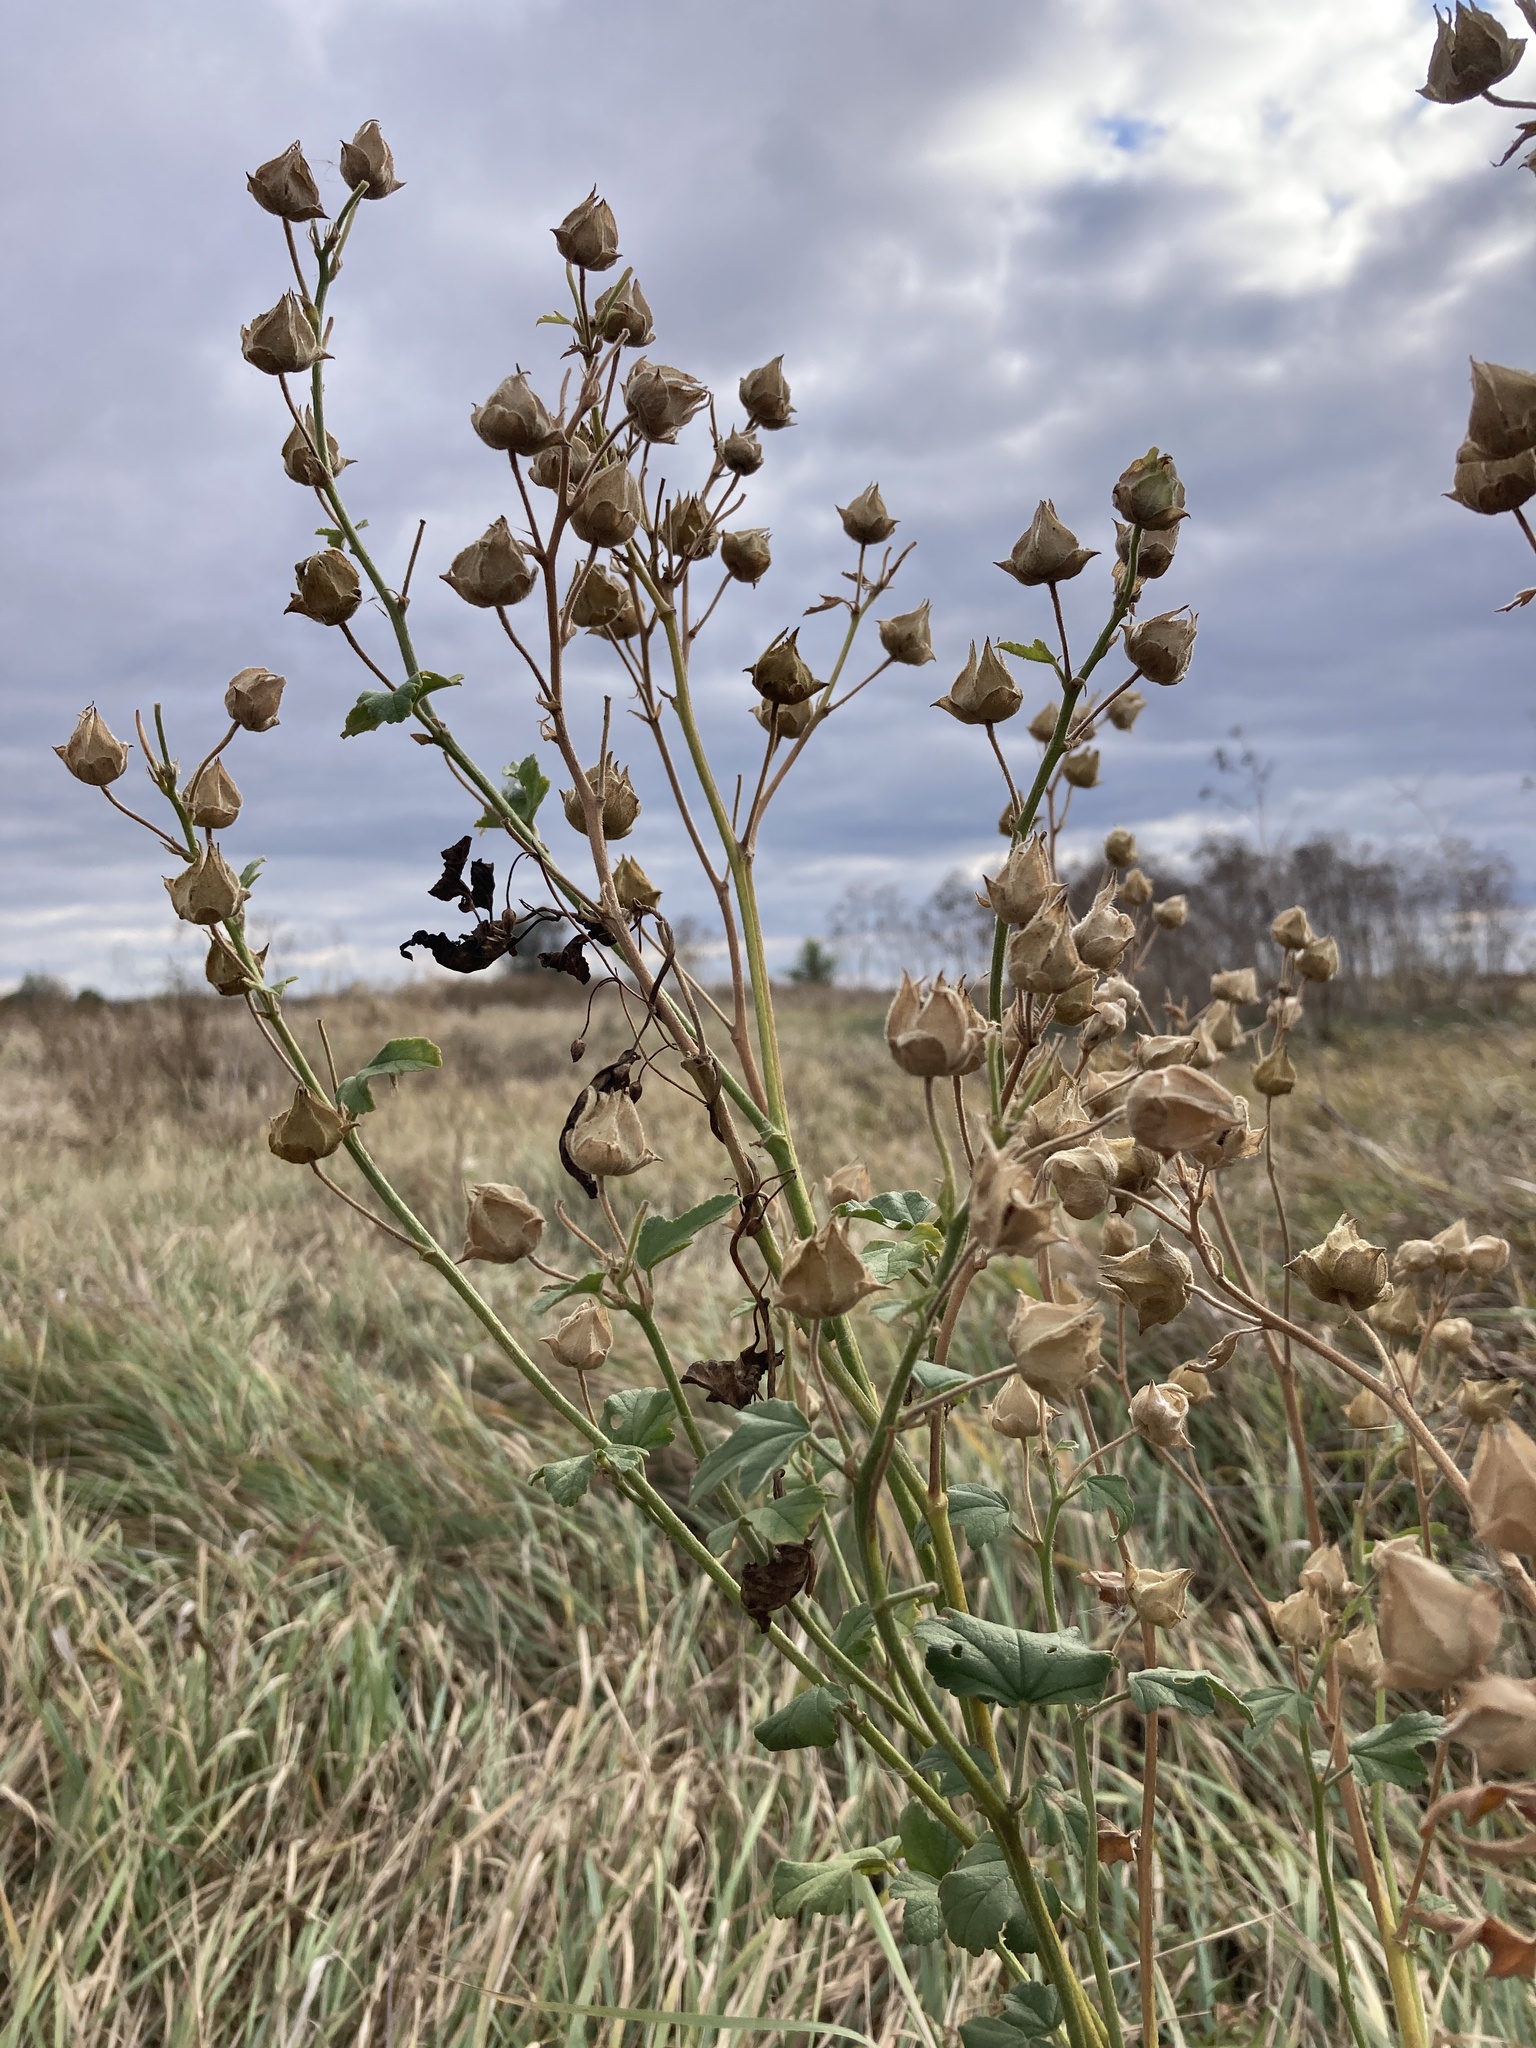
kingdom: Plantae
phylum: Tracheophyta
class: Magnoliopsida
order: Malvales
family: Malvaceae
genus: Malva
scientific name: Malva thuringiaca
